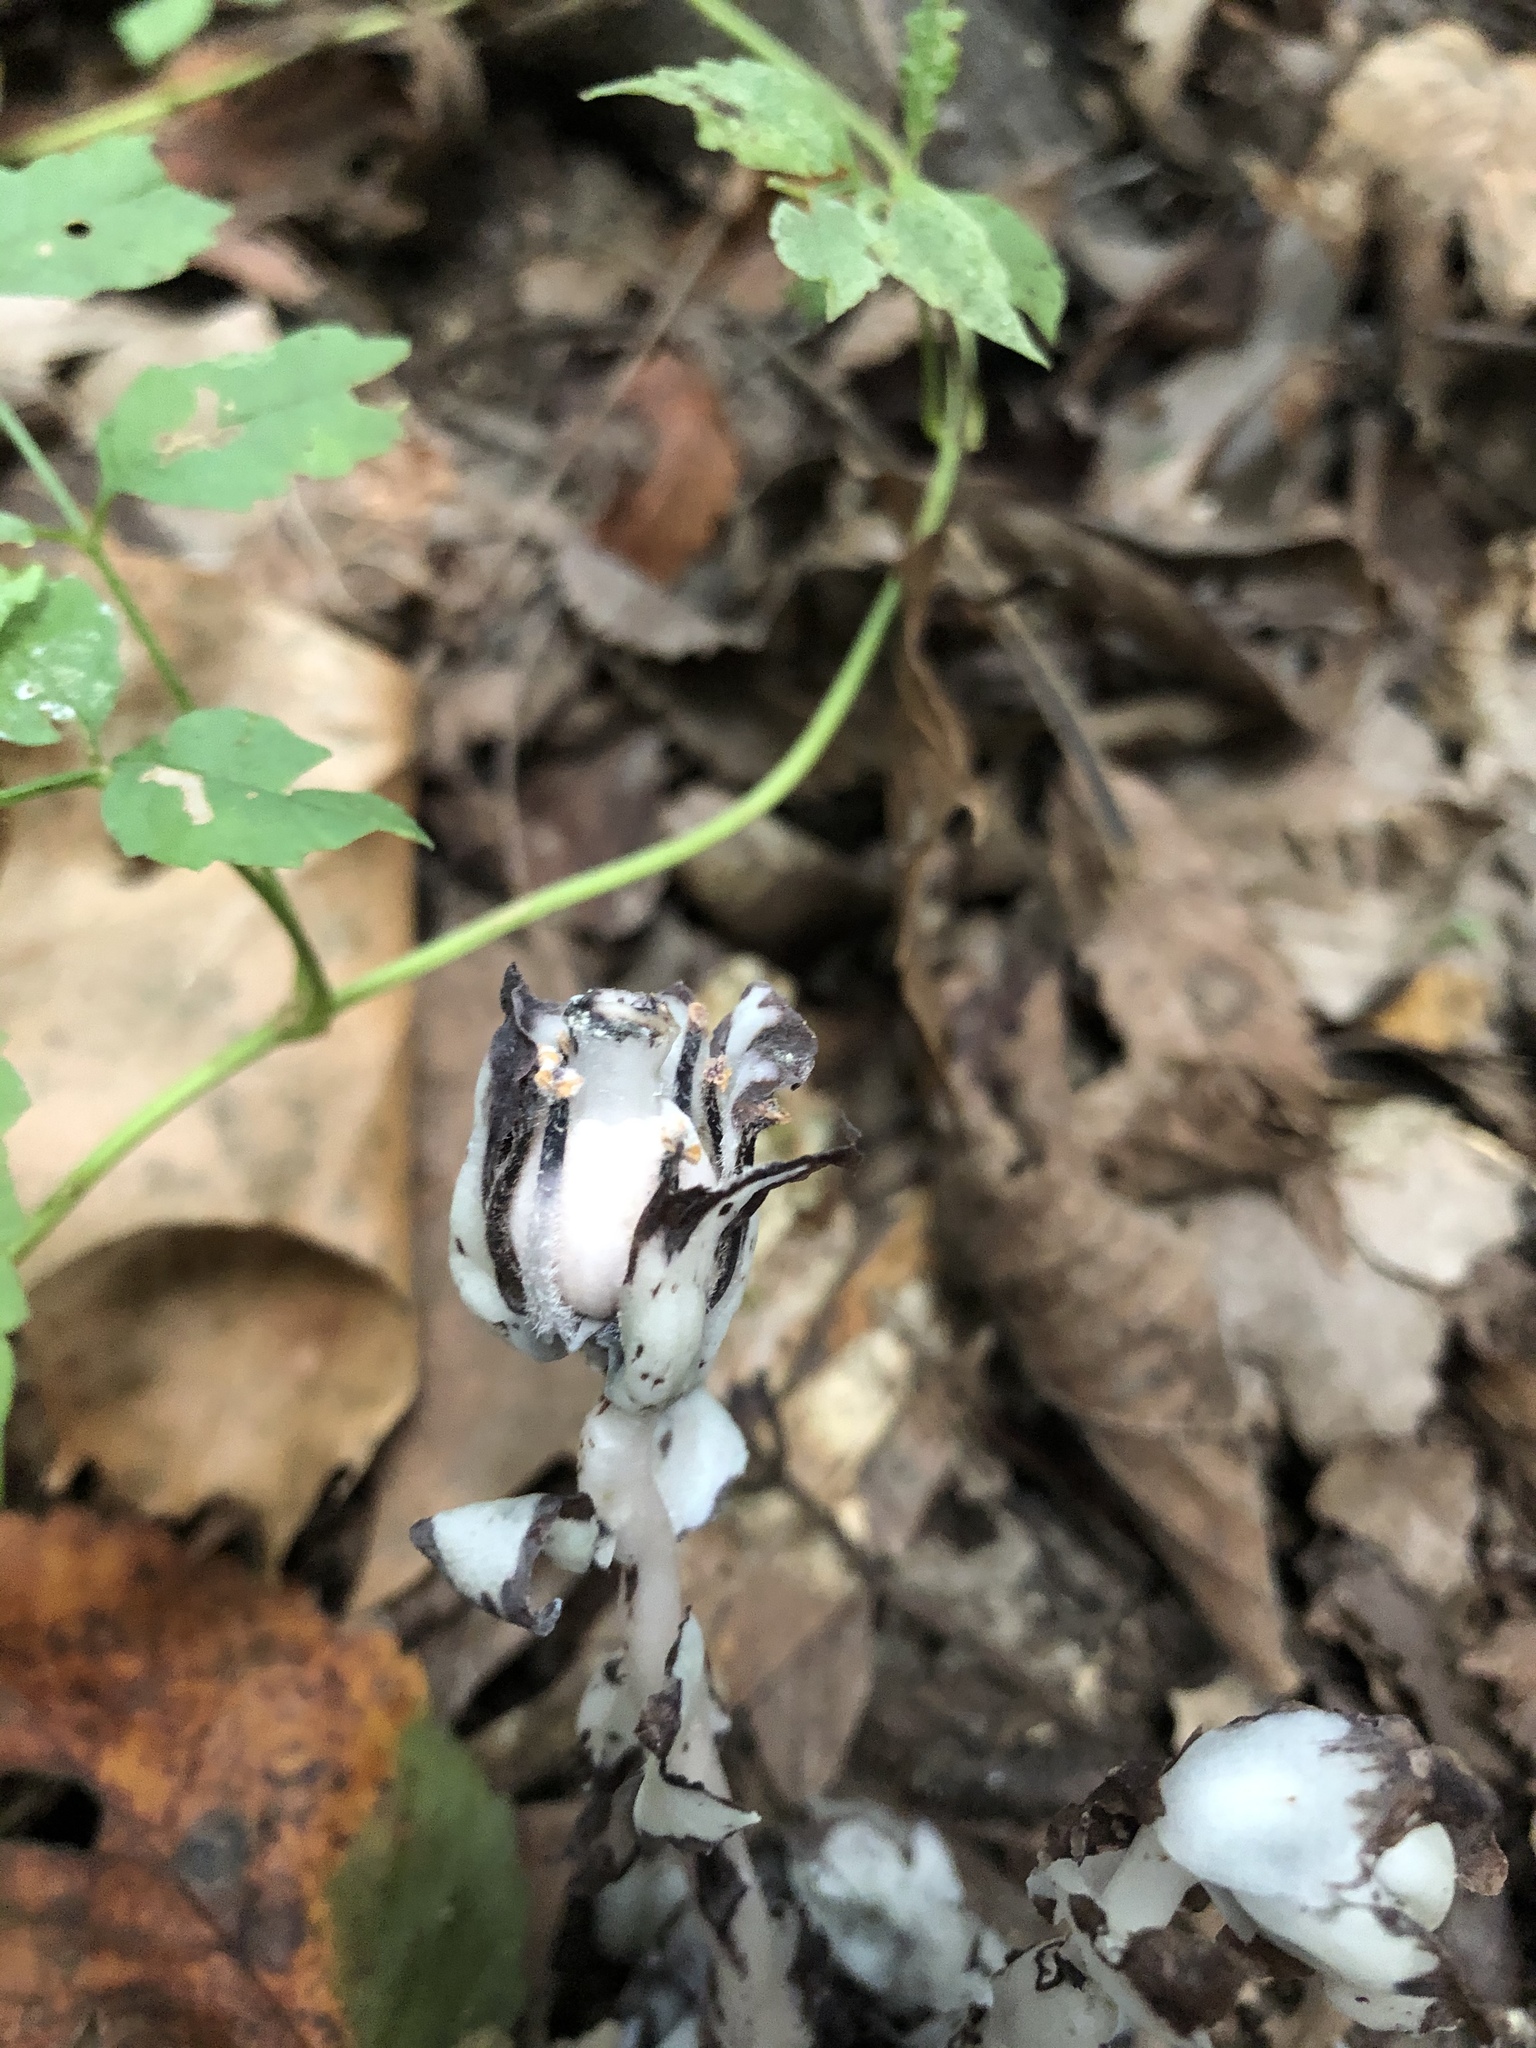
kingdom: Plantae
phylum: Tracheophyta
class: Magnoliopsida
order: Ericales
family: Ericaceae
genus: Monotropa
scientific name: Monotropa uniflora
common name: Convulsion root
